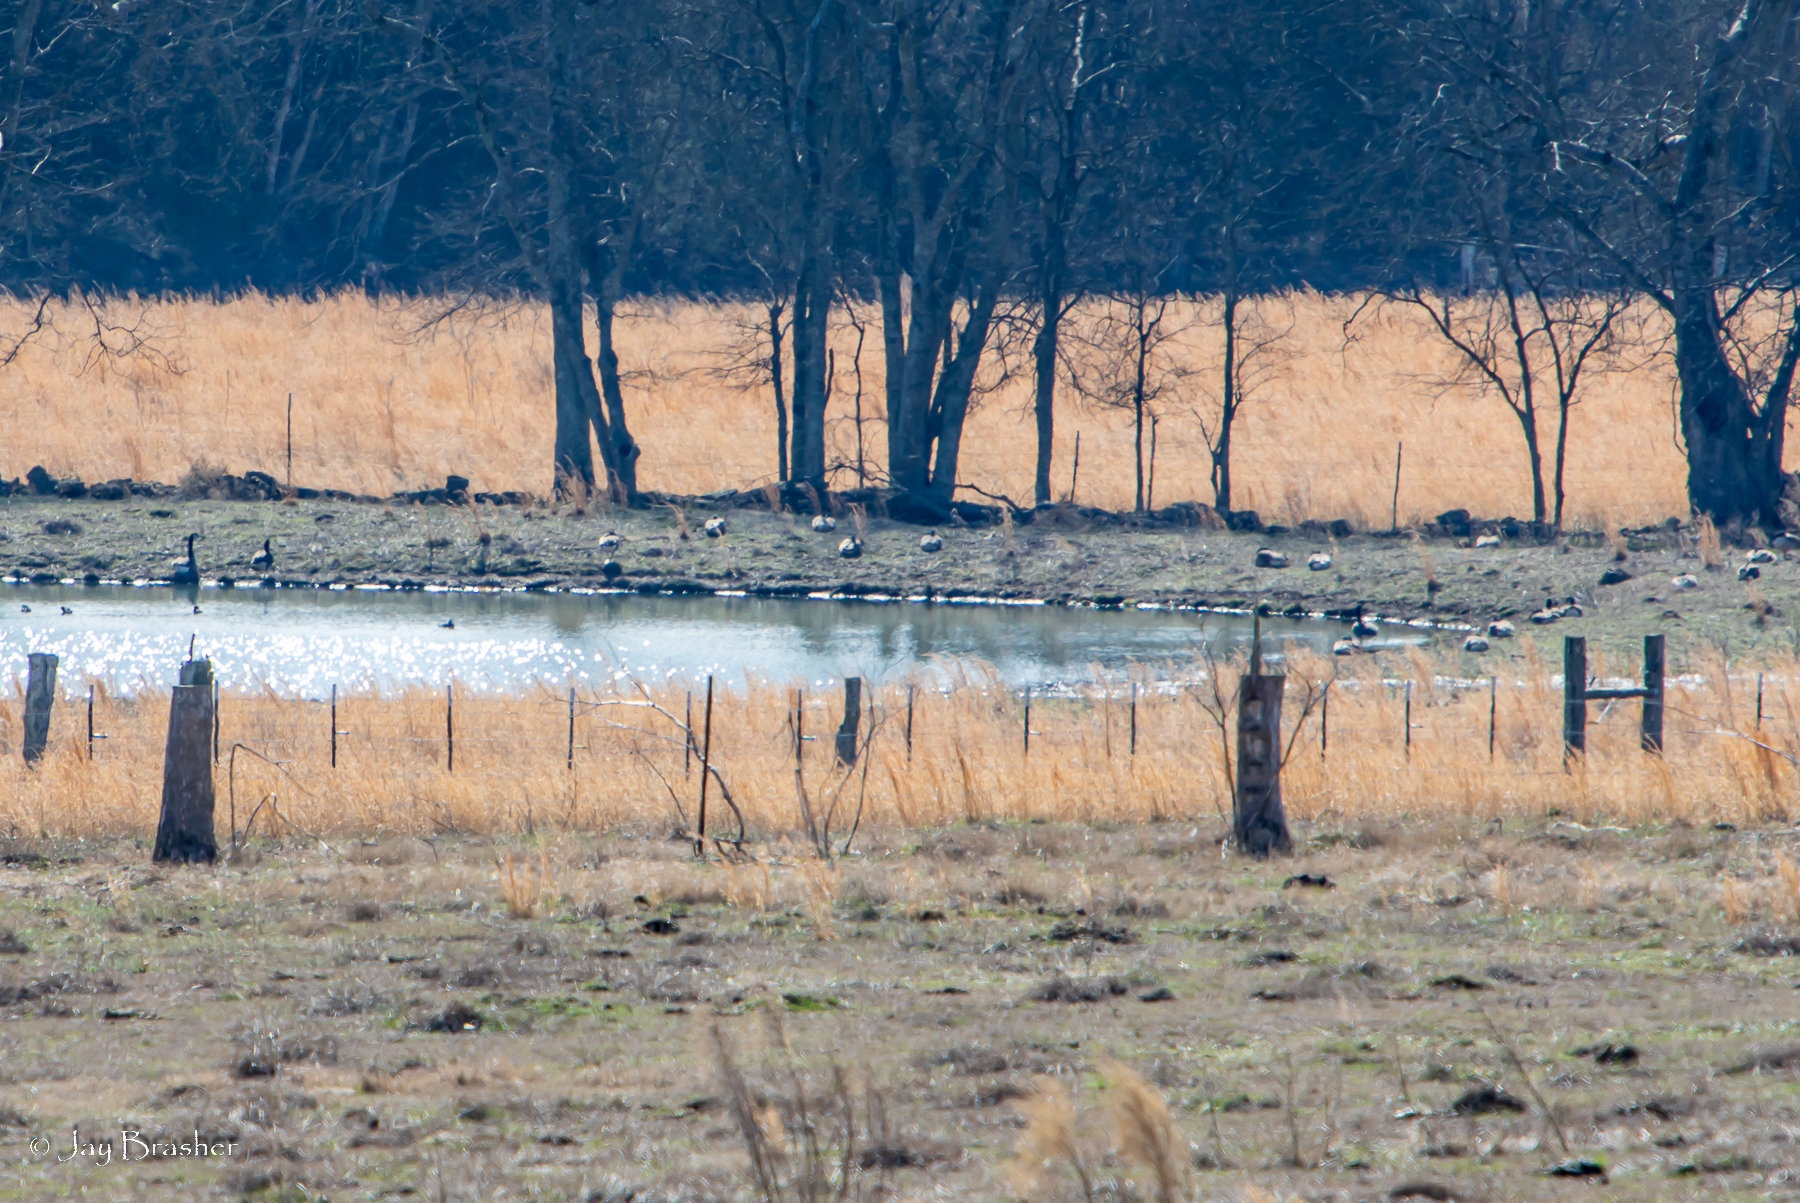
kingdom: Animalia
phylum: Chordata
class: Aves
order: Anseriformes
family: Anatidae
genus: Branta
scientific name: Branta canadensis
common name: Canada goose
